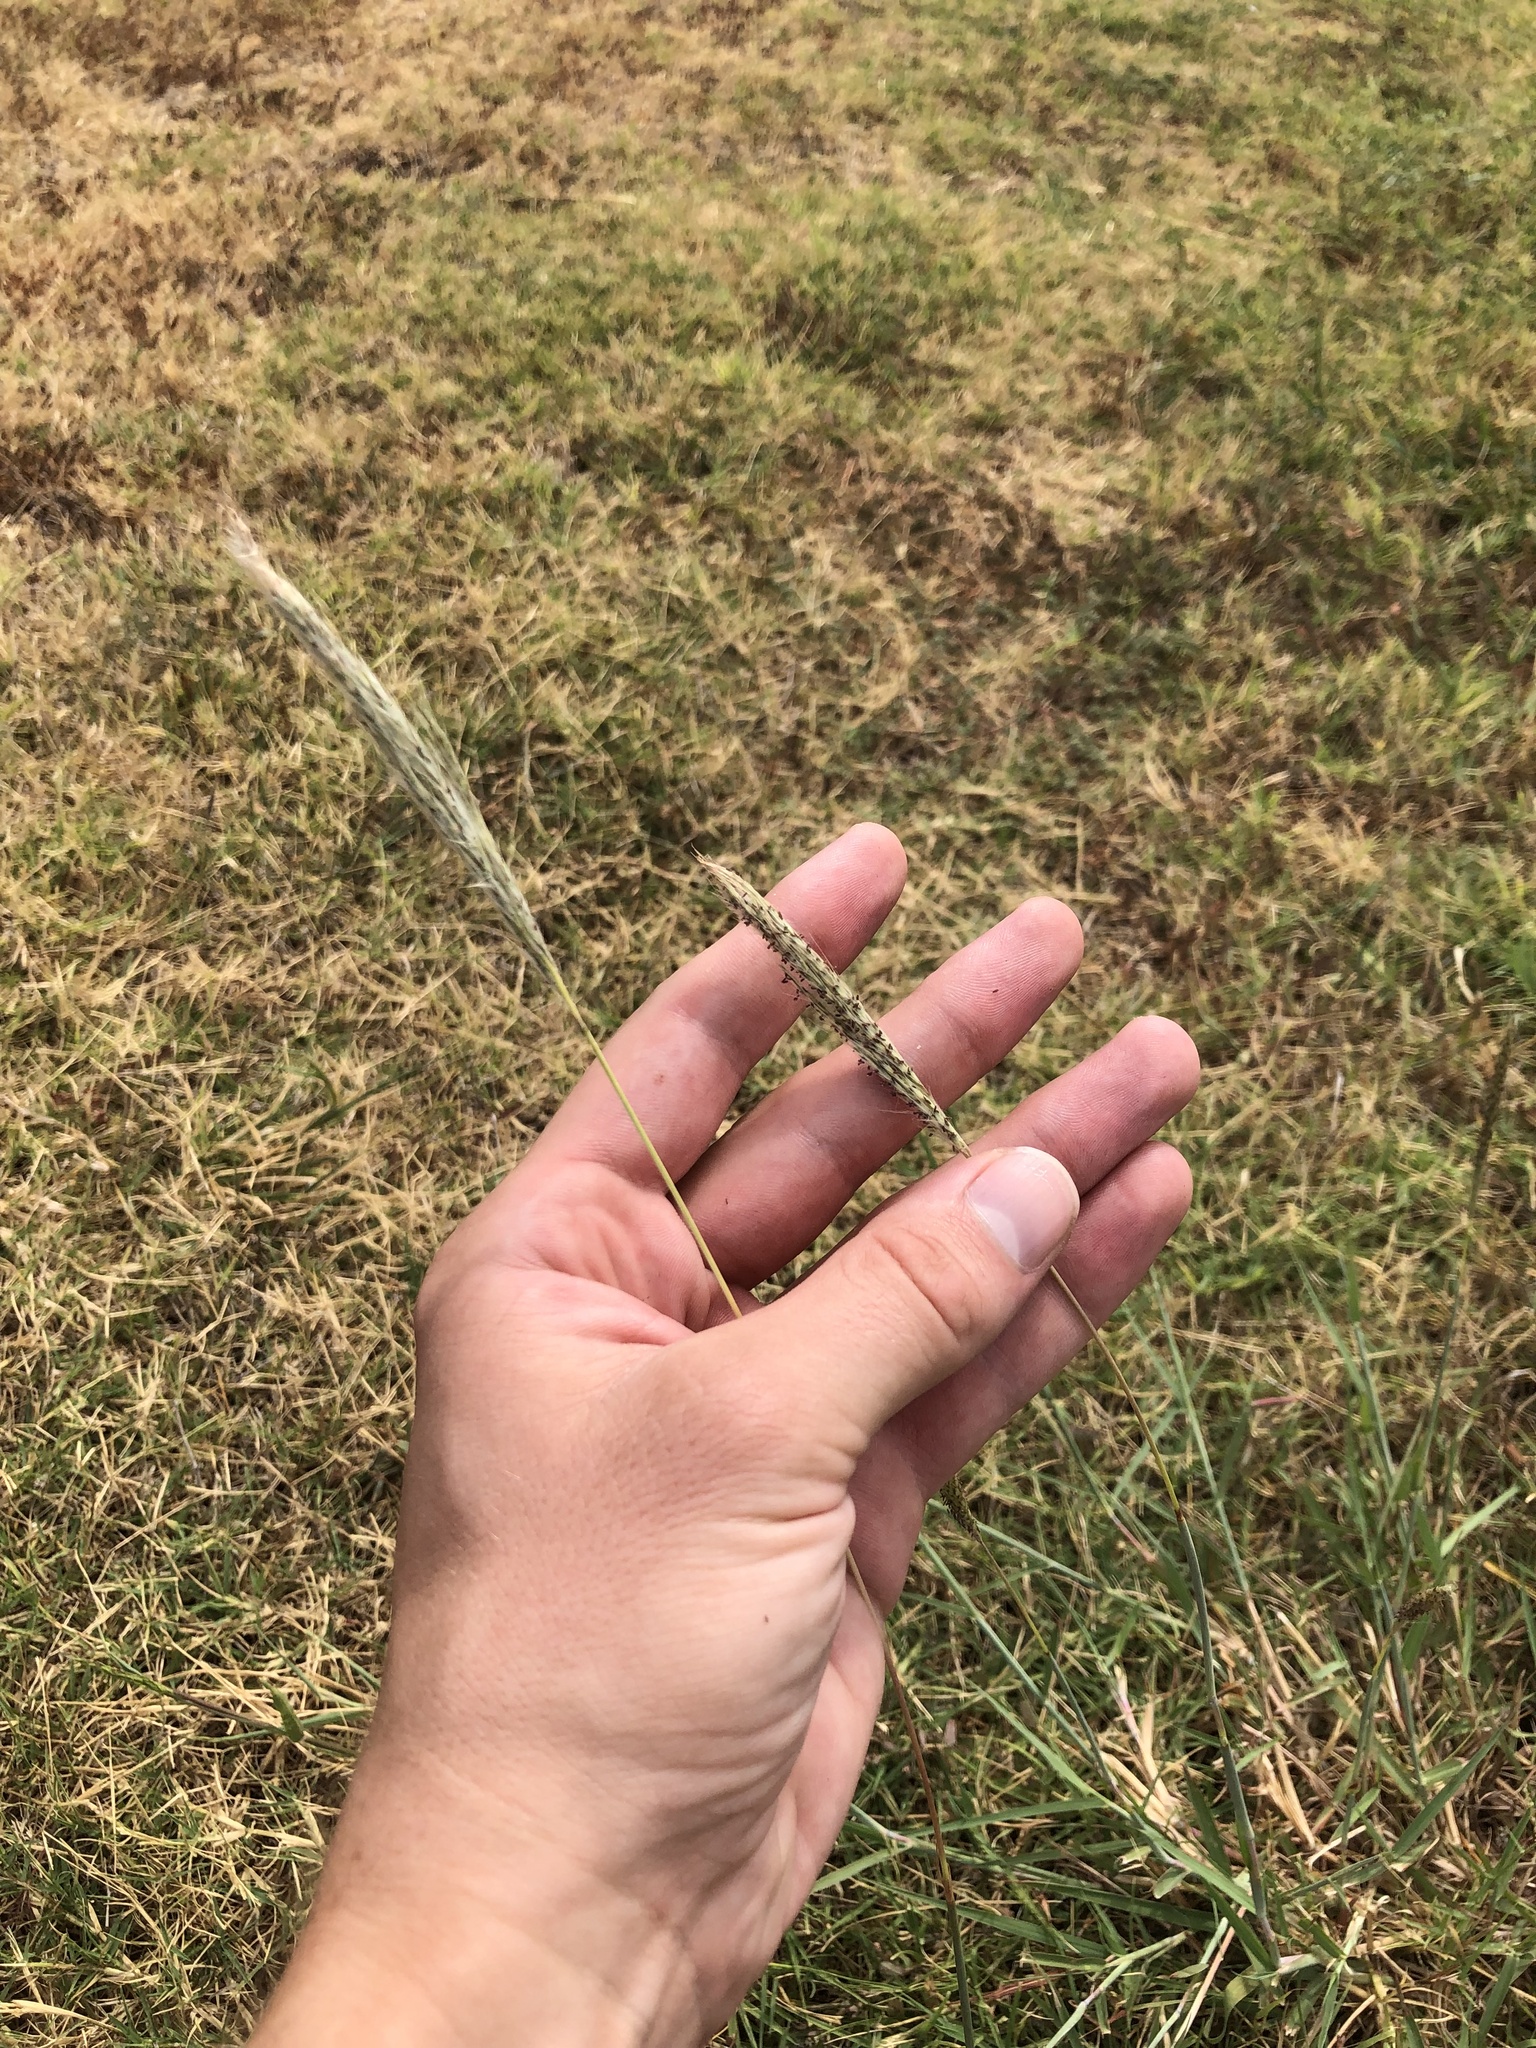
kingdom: Plantae
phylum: Tracheophyta
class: Liliopsida
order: Poales
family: Poaceae
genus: Bothriochloa
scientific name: Bothriochloa torreyana
